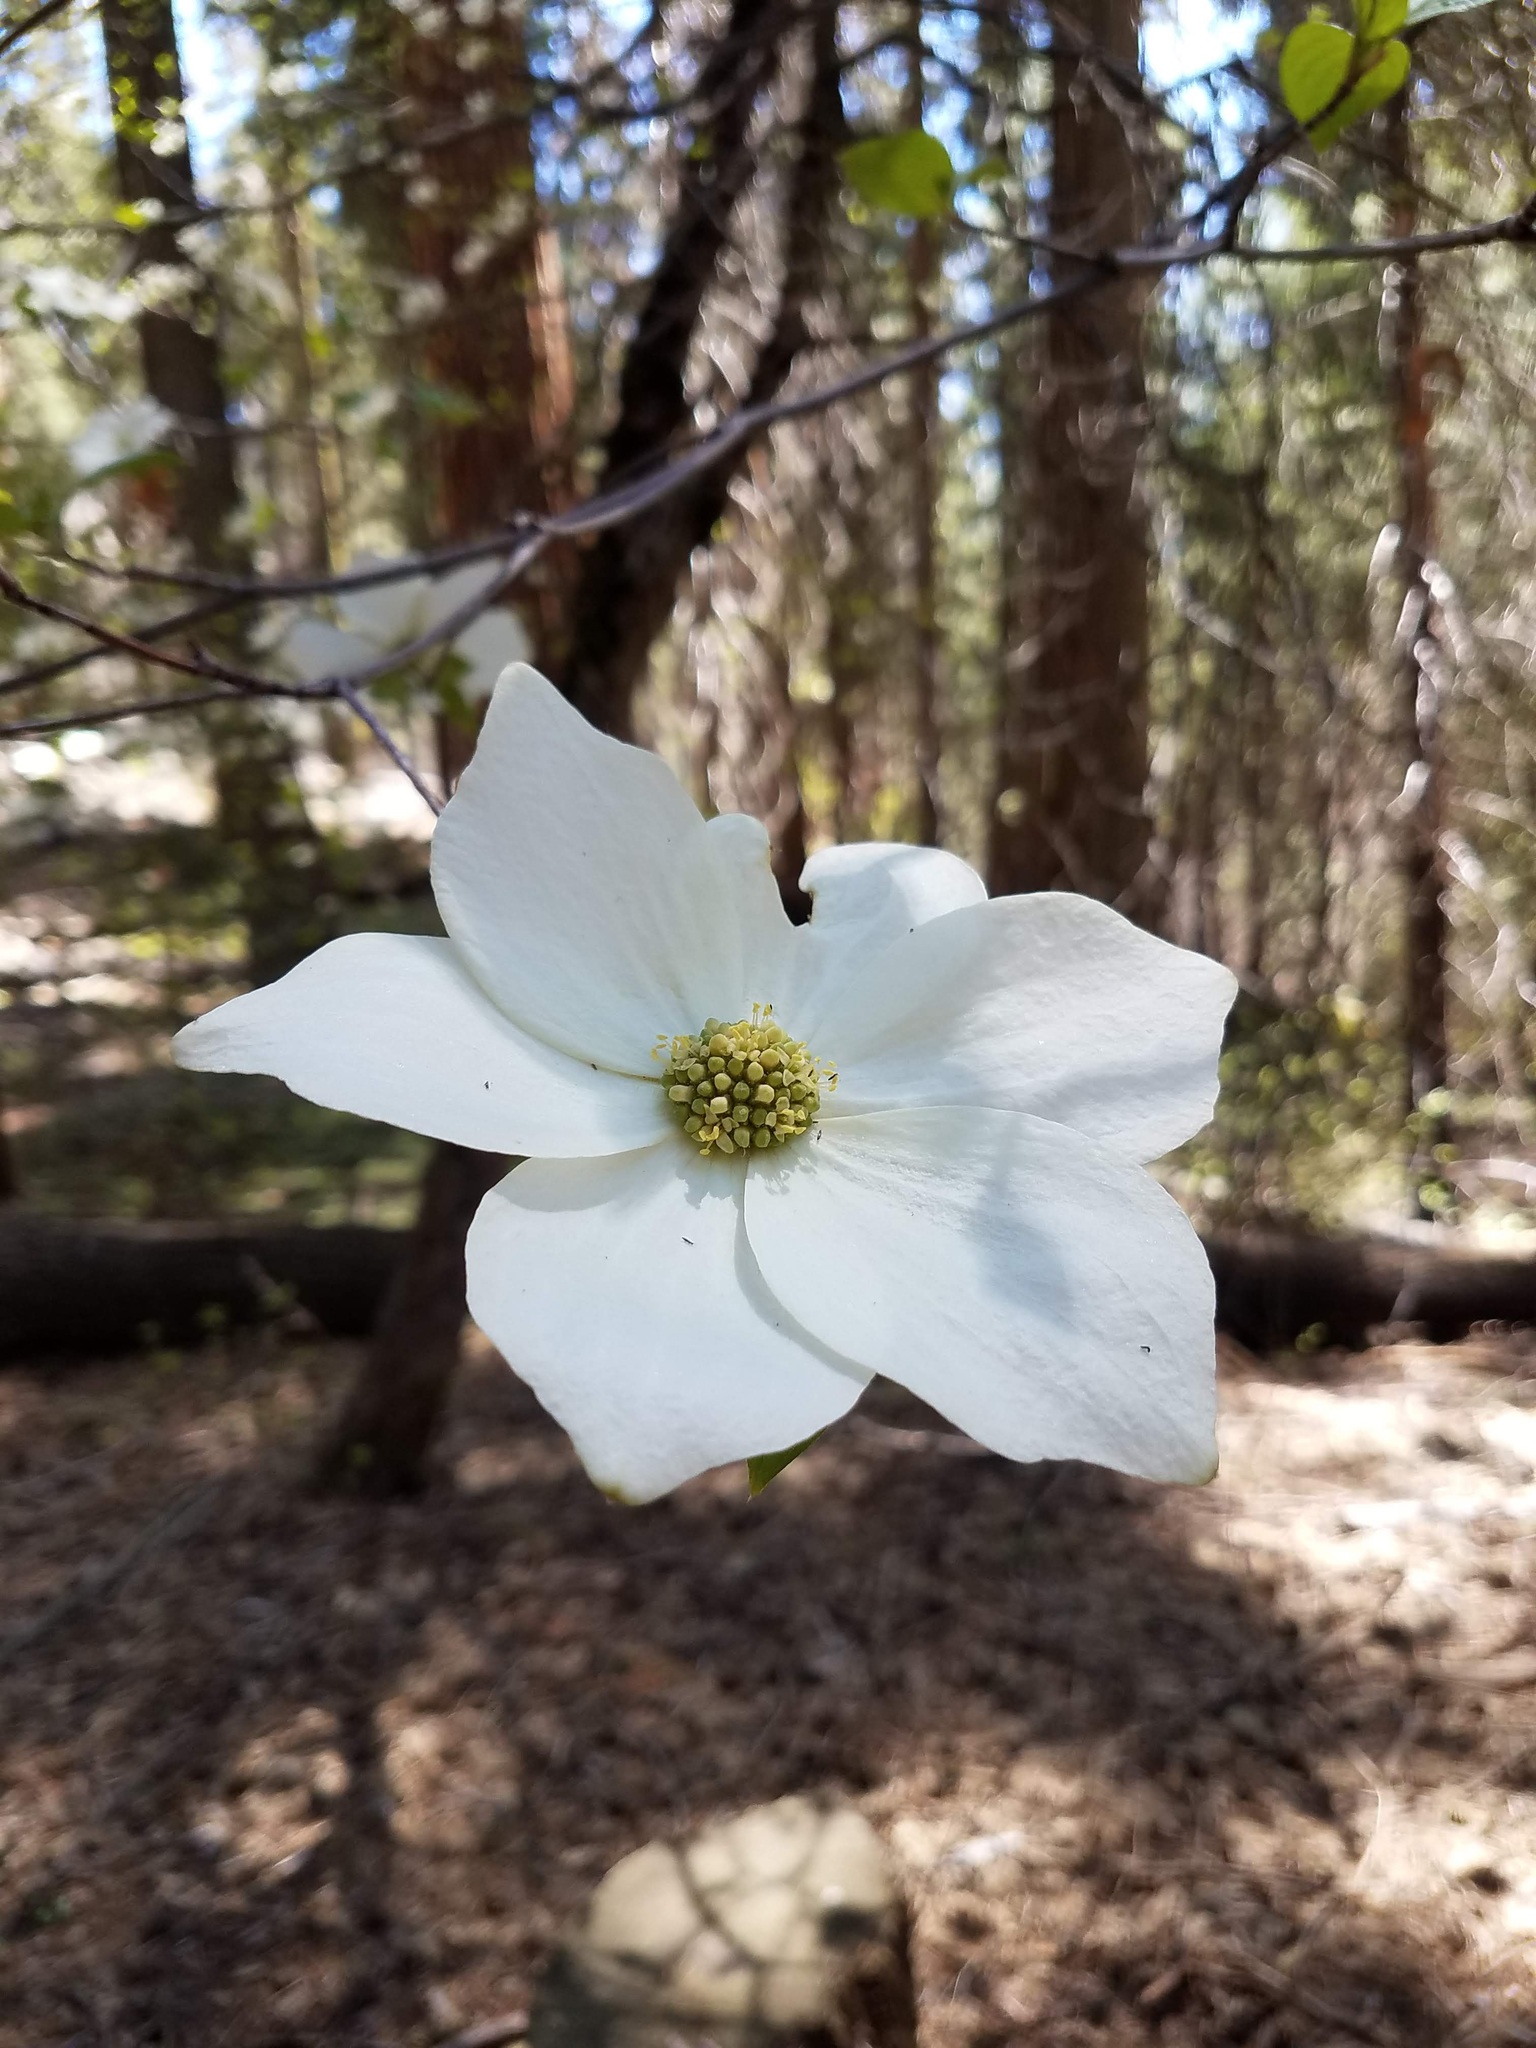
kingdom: Plantae
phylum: Tracheophyta
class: Magnoliopsida
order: Cornales
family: Cornaceae
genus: Cornus
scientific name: Cornus nuttallii
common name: Pacific dogwood
